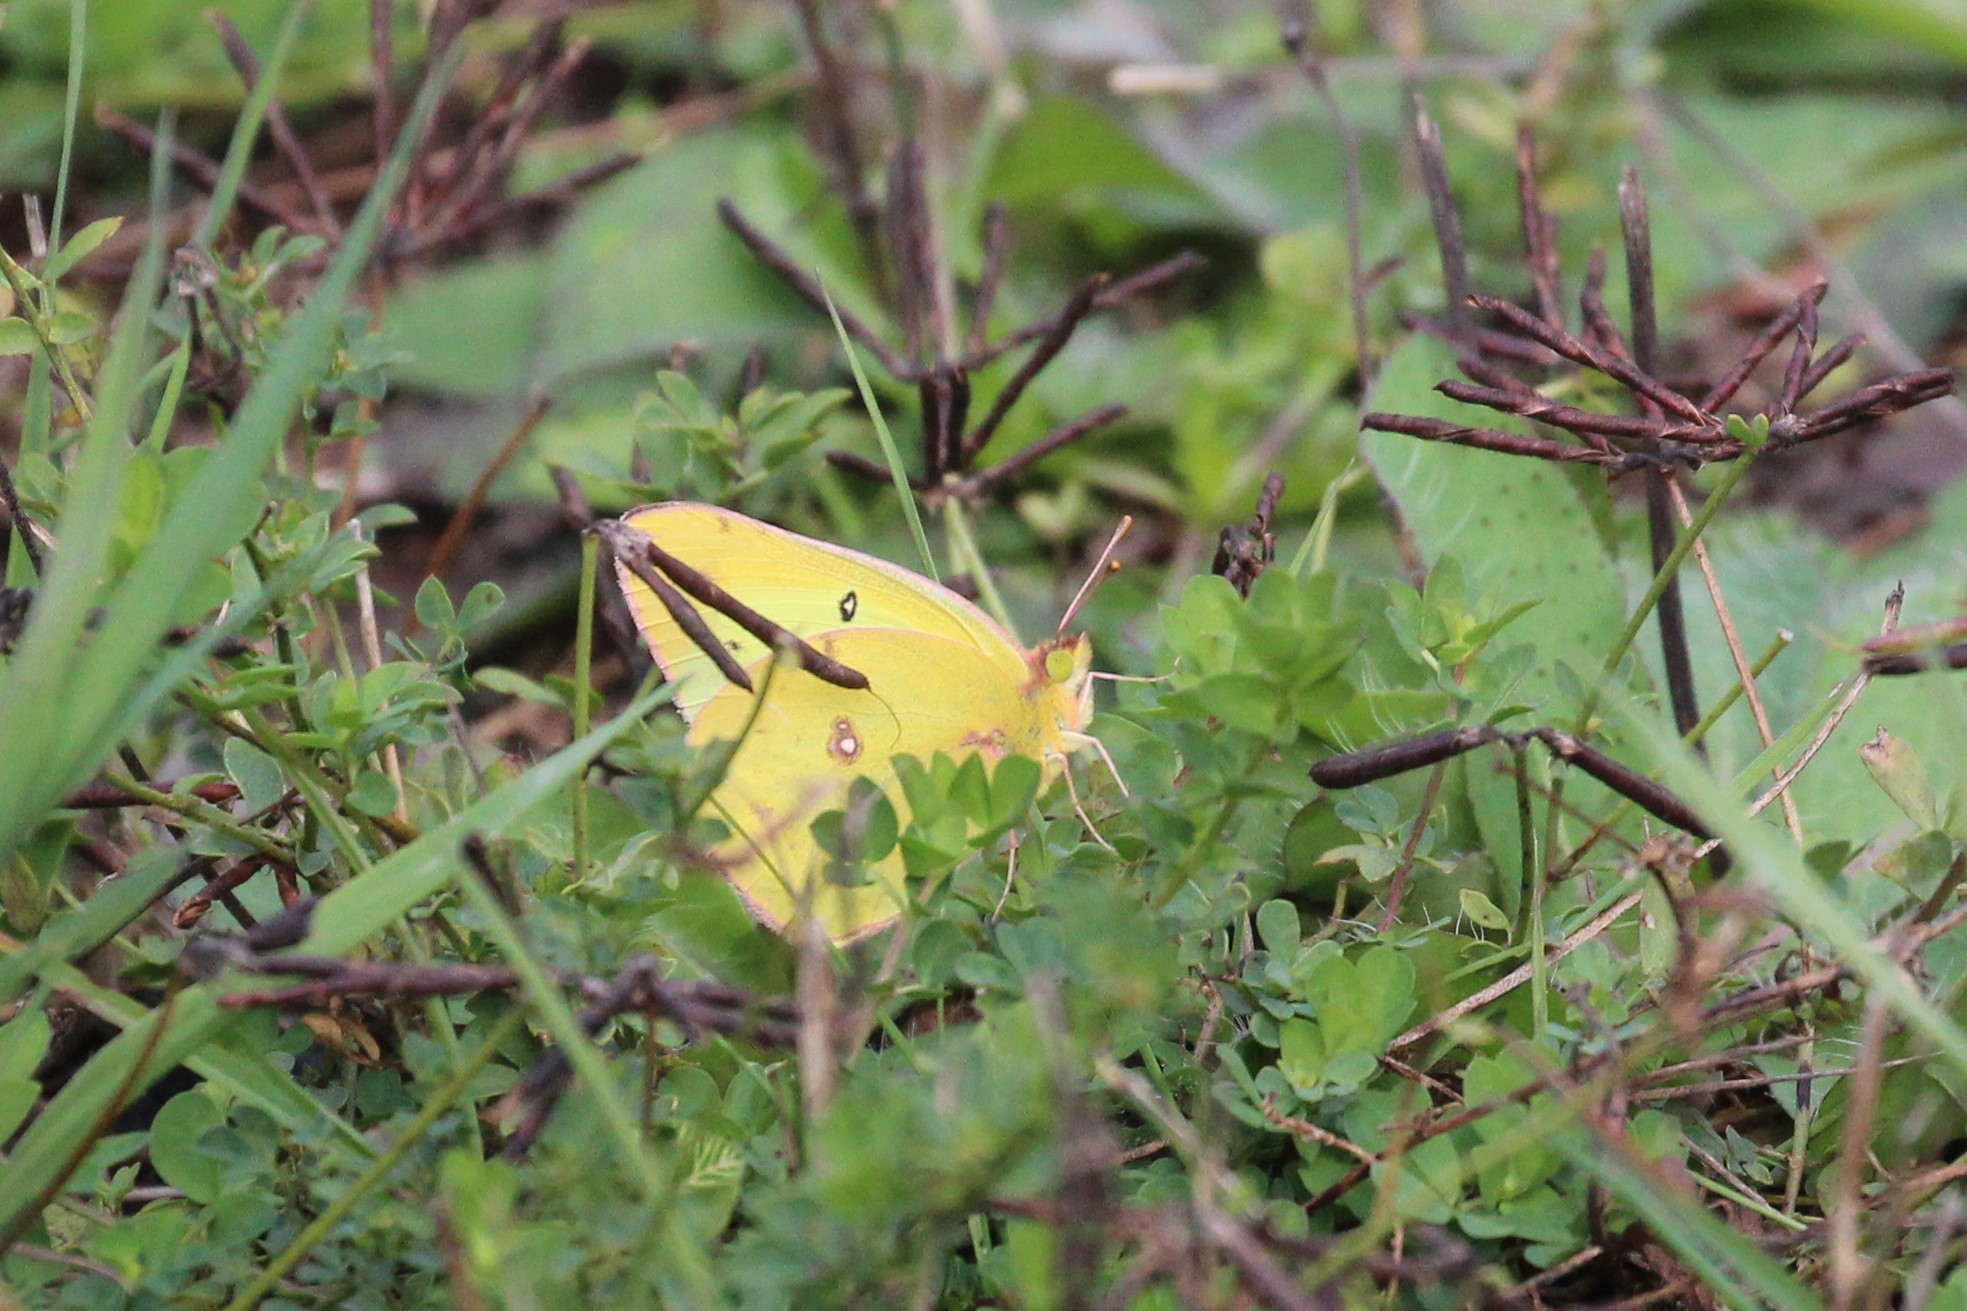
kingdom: Animalia
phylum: Arthropoda
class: Insecta
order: Lepidoptera
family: Pieridae
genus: Colias
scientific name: Colias philodice
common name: Clouded sulphur
